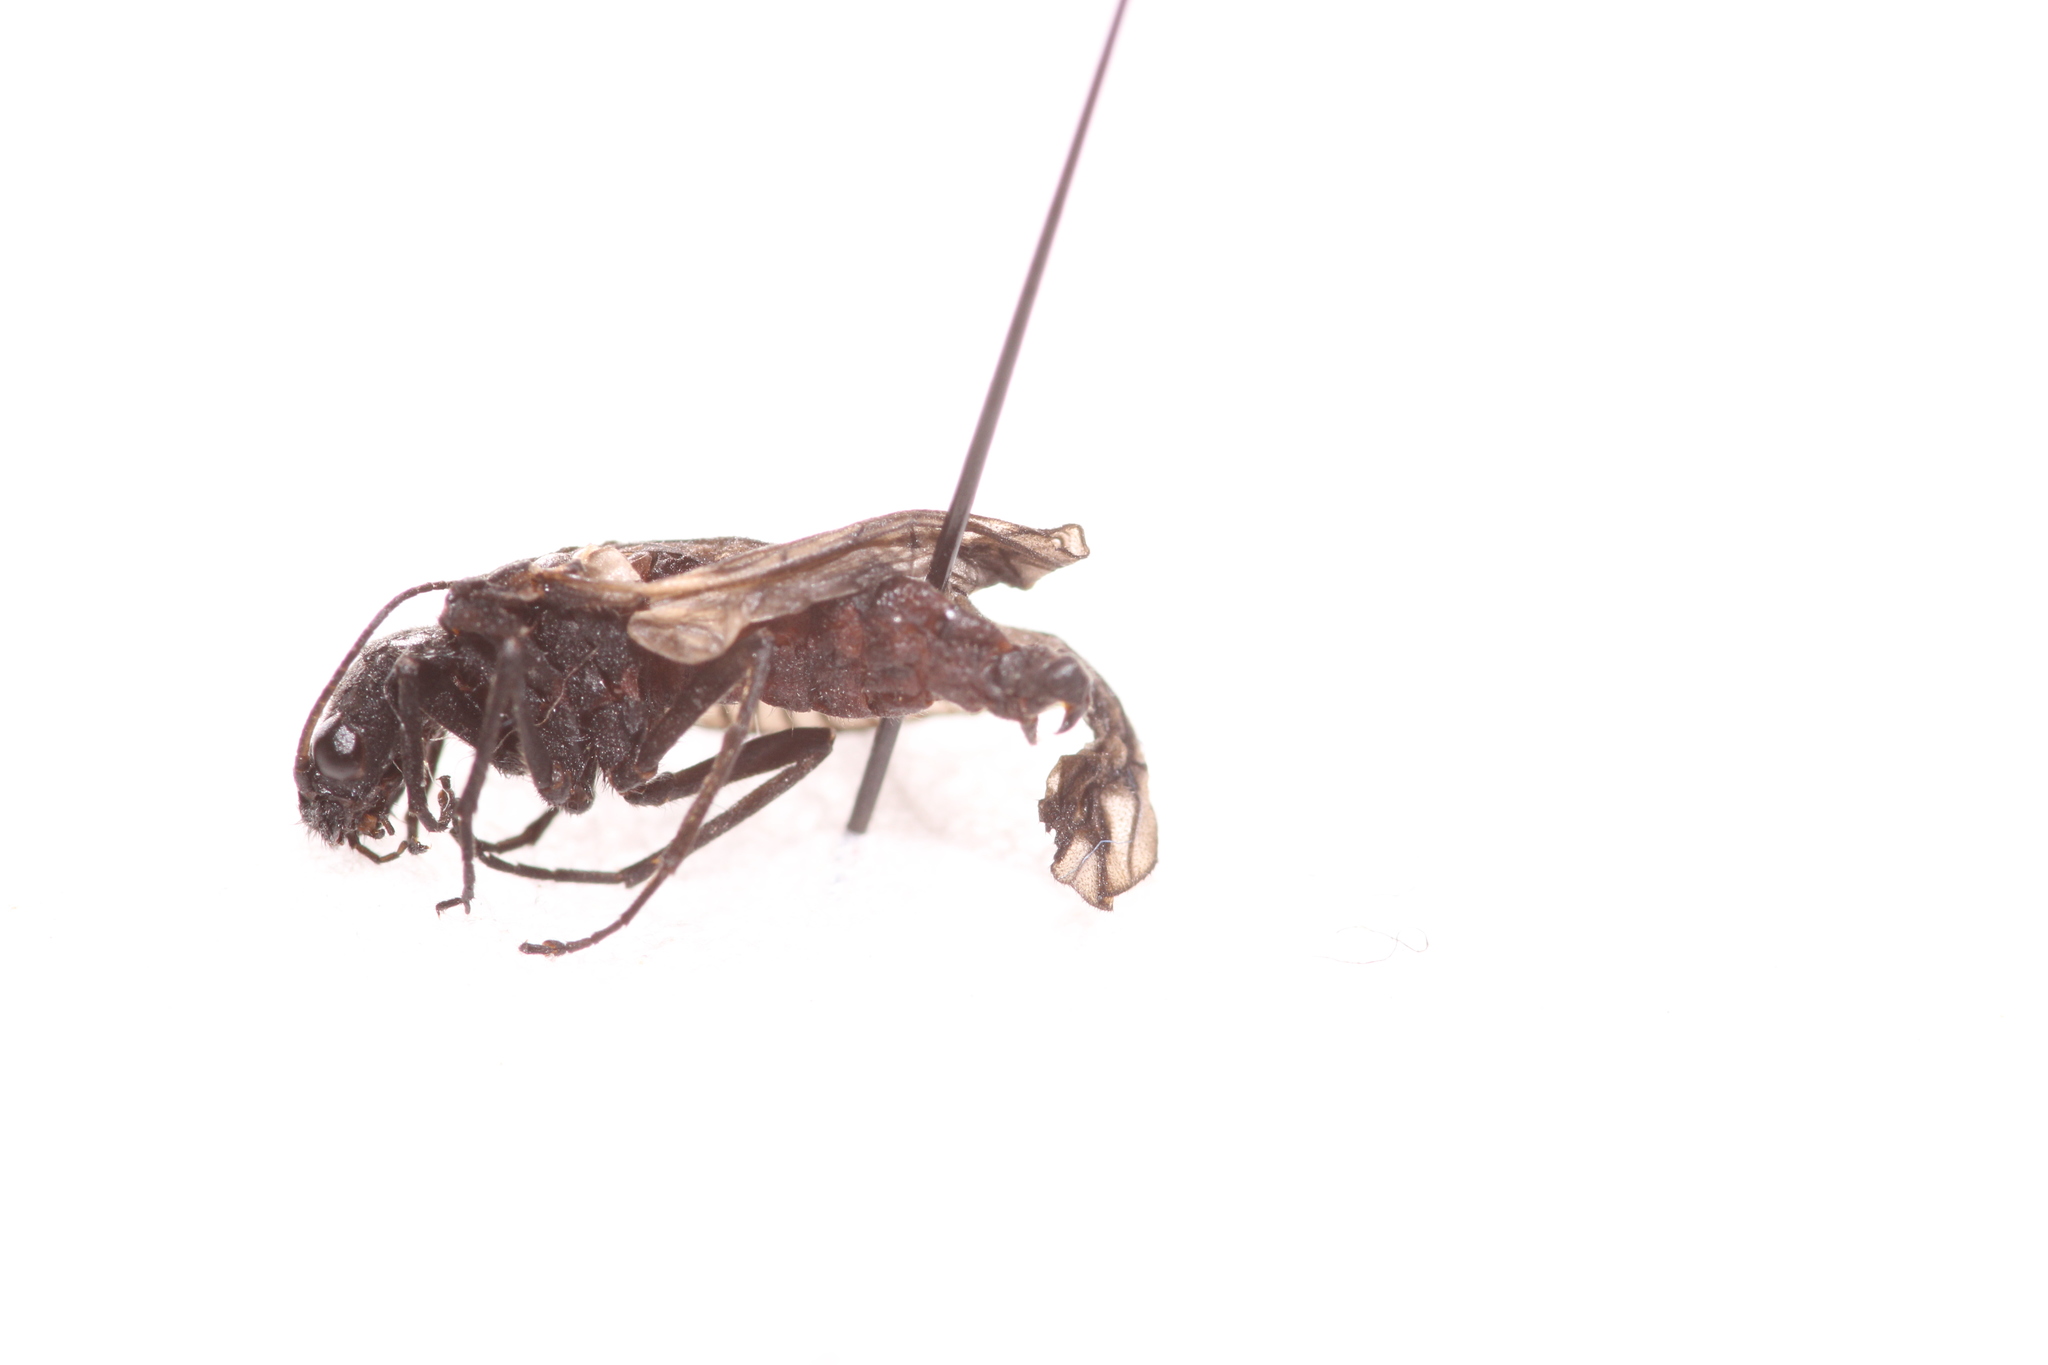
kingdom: Animalia
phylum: Arthropoda
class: Insecta
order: Megaloptera
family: Sialidae
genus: Sialis
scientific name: Sialis fuliginosa
